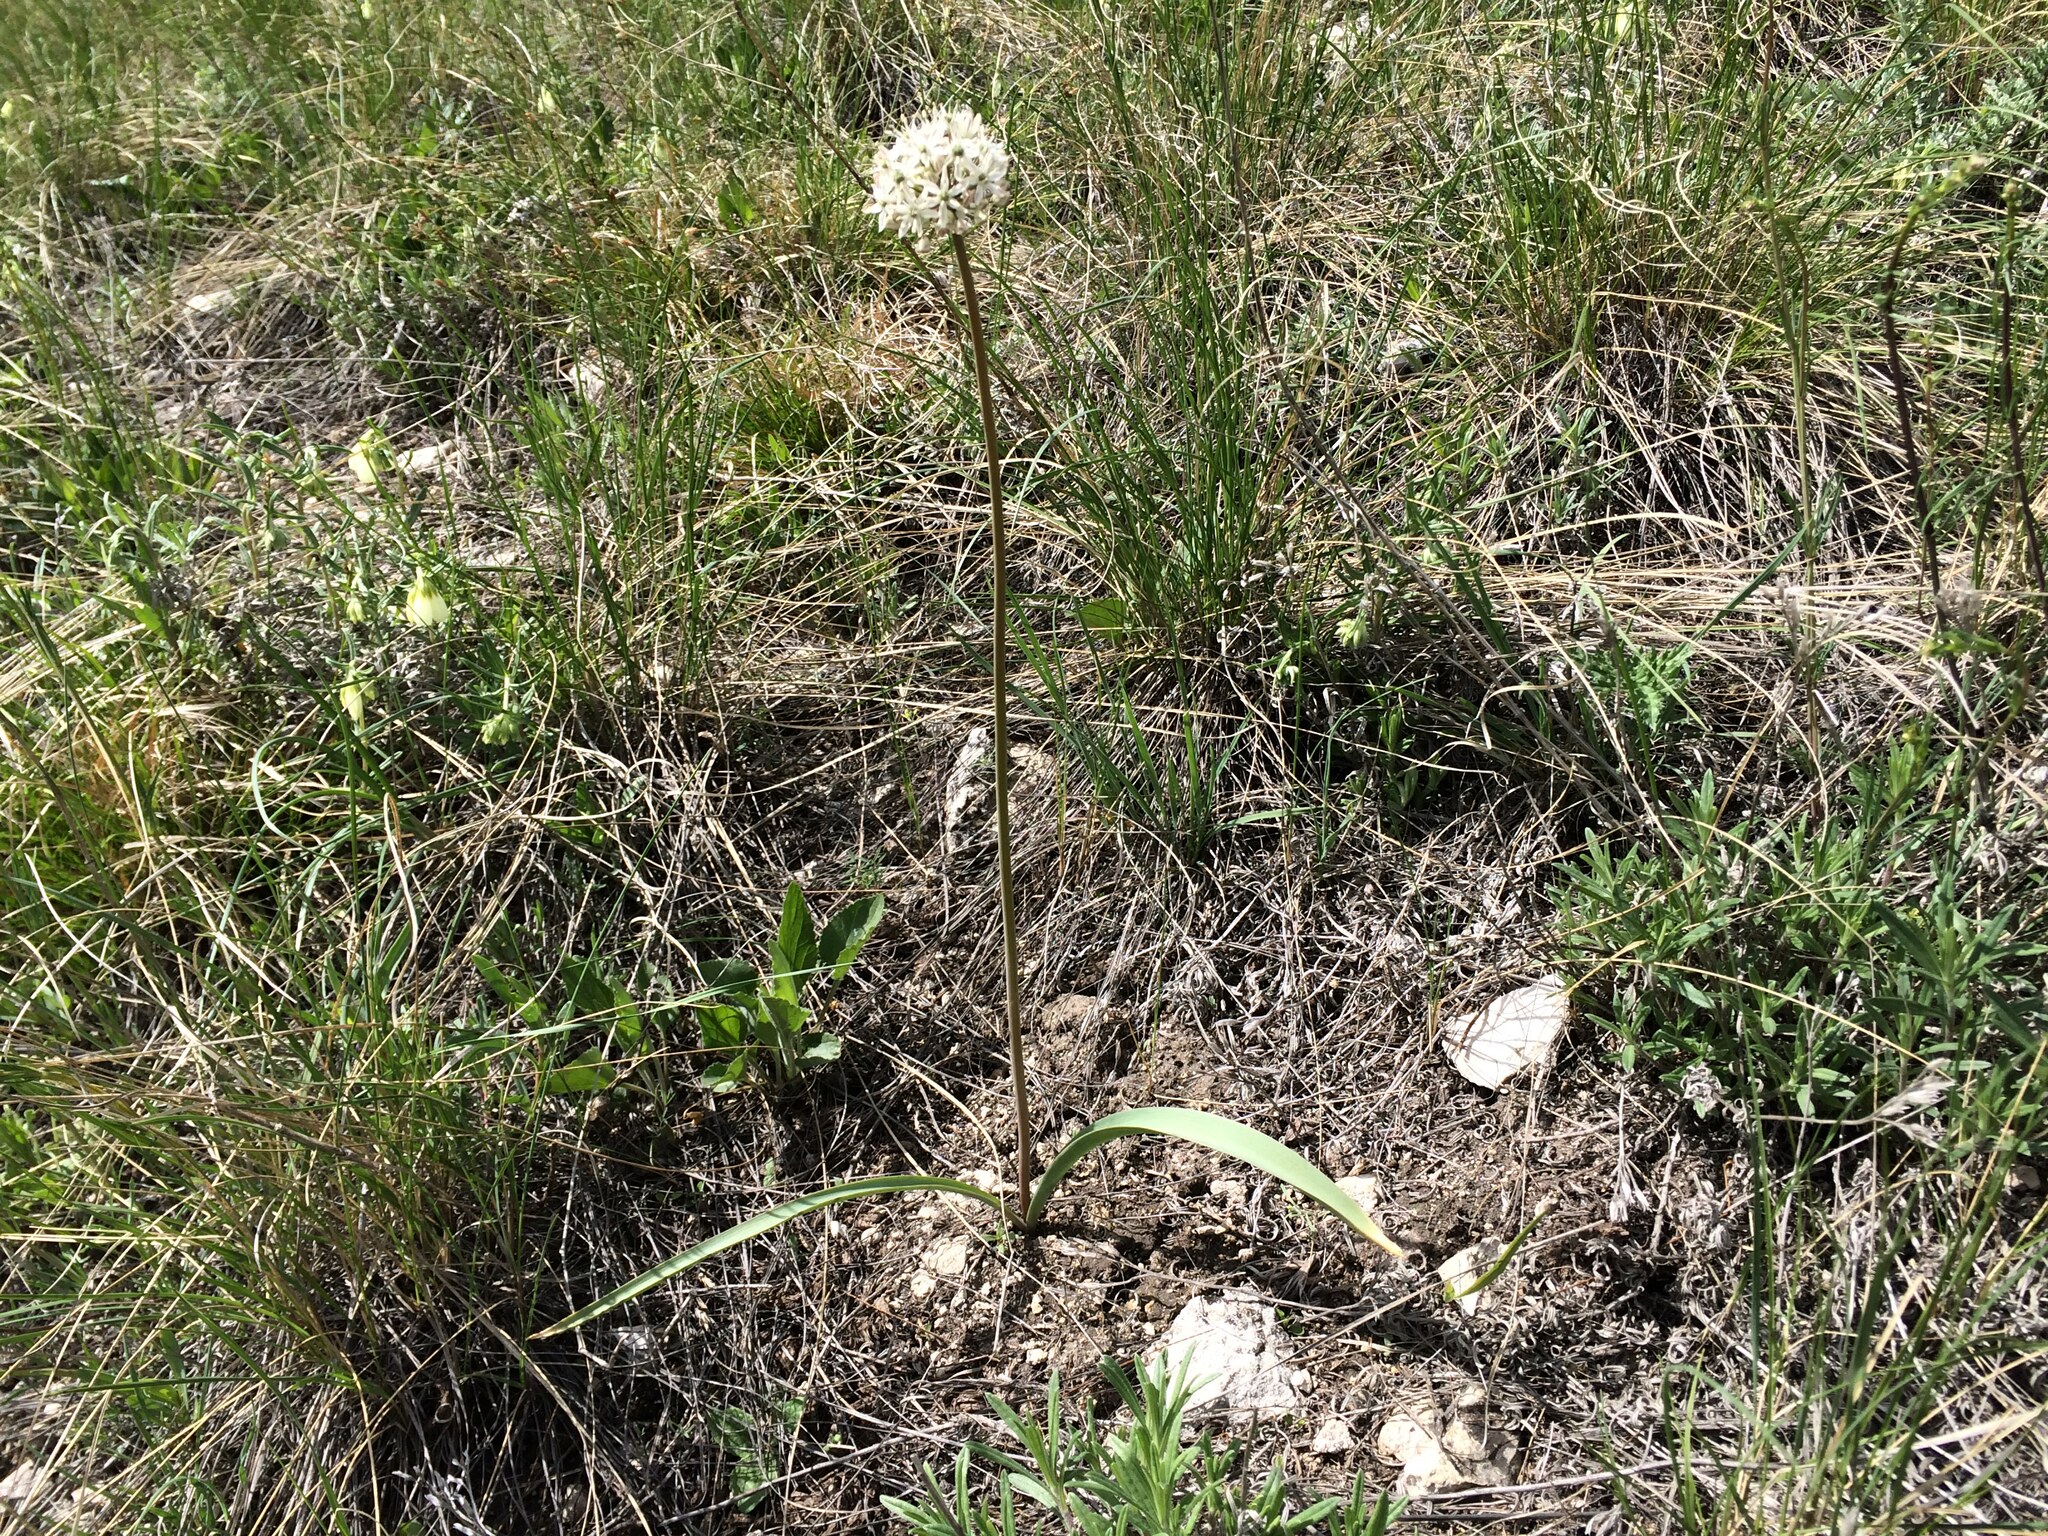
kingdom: Plantae
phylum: Tracheophyta
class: Liliopsida
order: Asparagales
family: Amaryllidaceae
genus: Allium
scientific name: Allium tulipifolium
